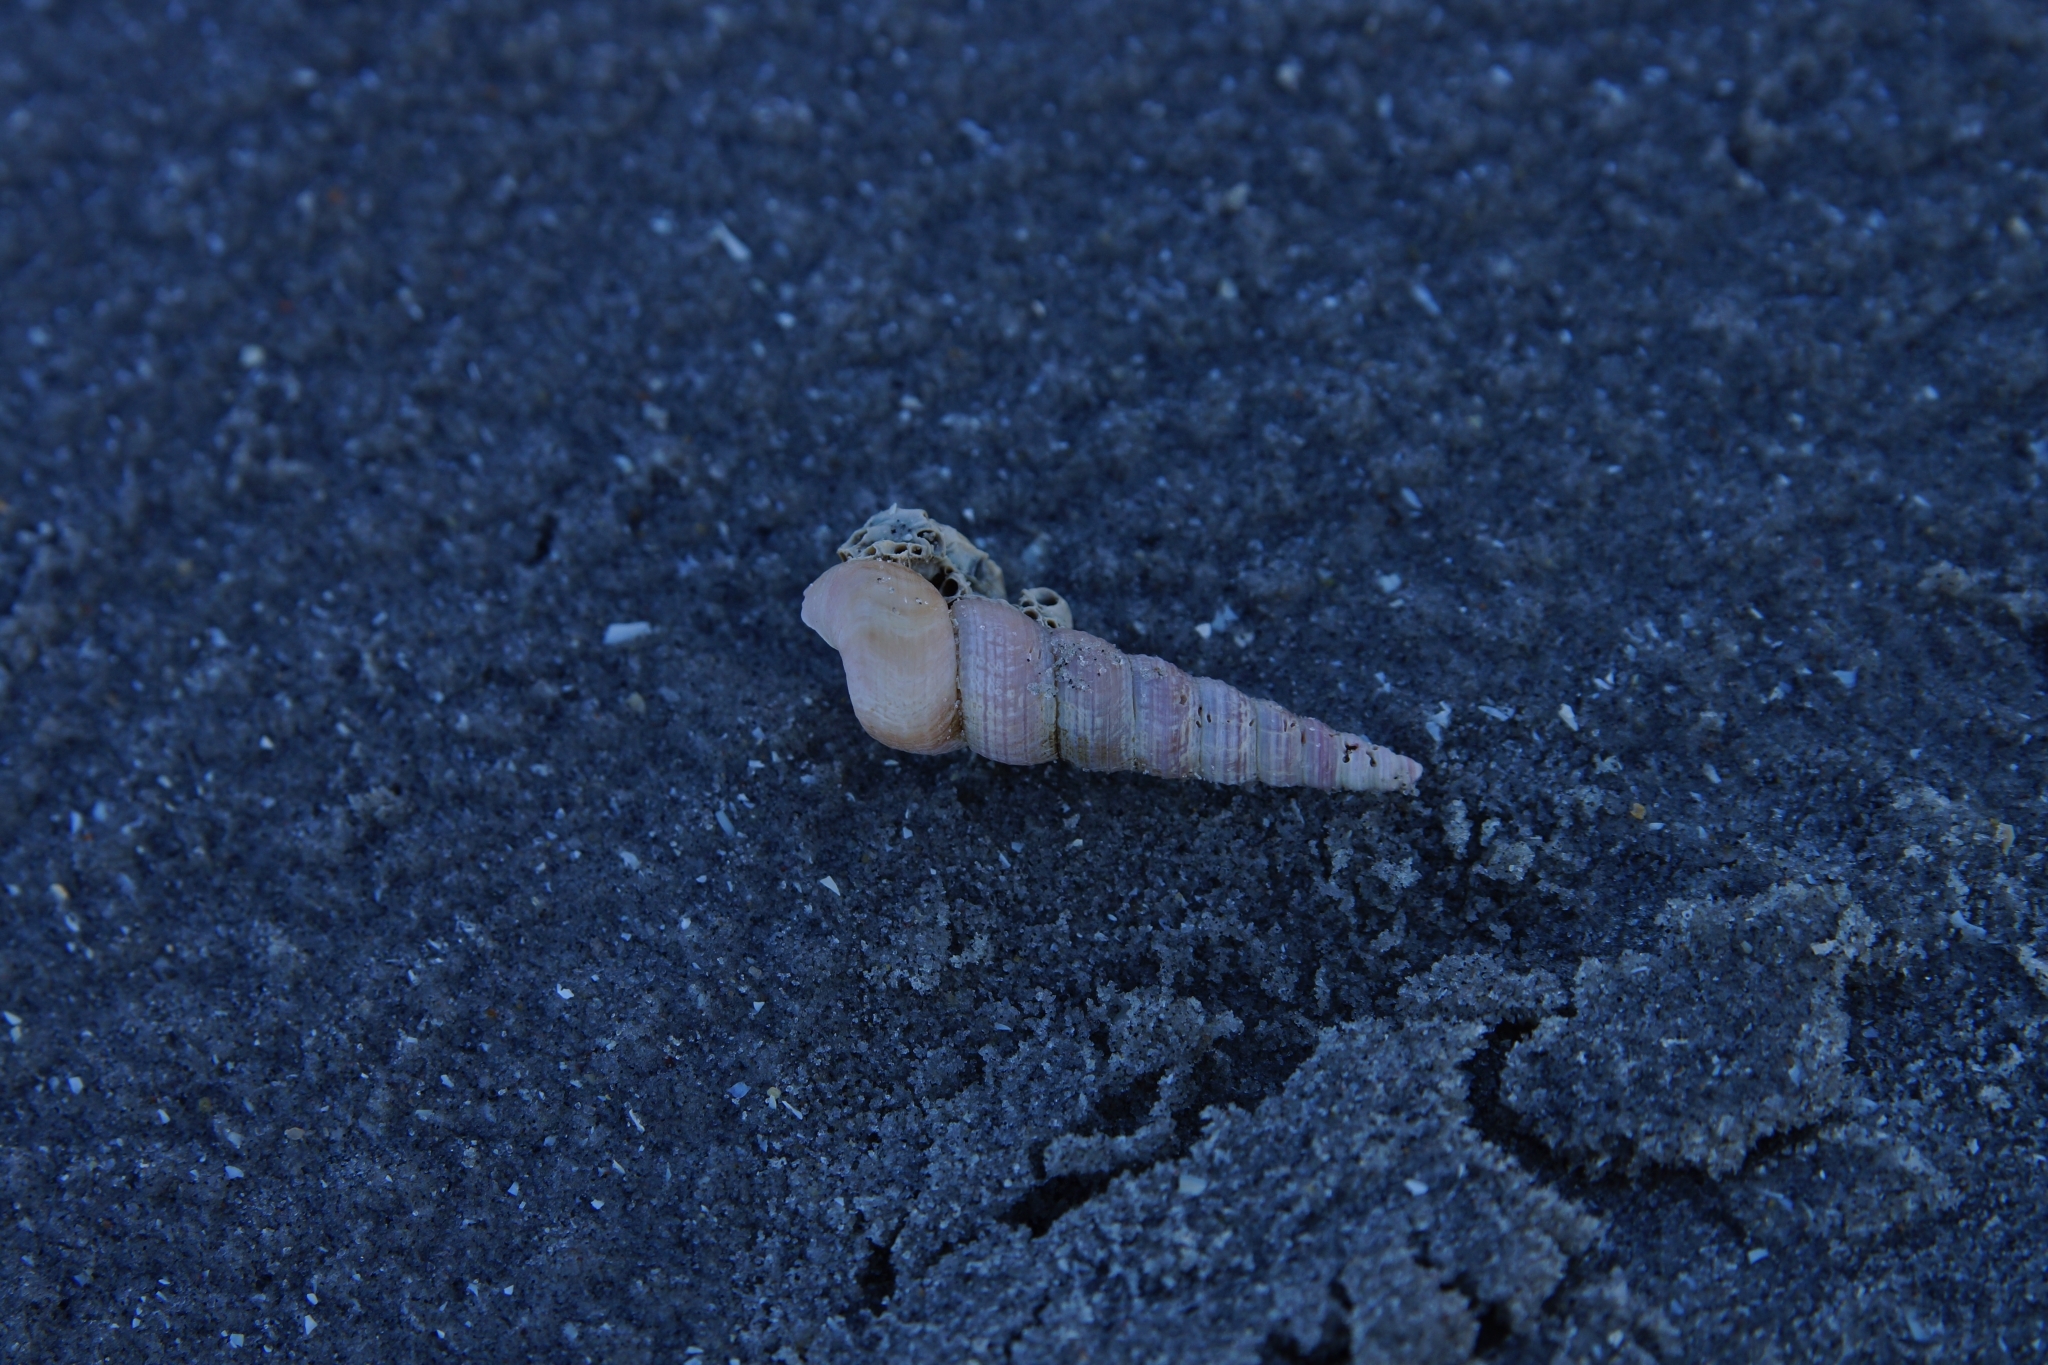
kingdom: Animalia
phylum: Mollusca
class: Gastropoda
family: Turritellidae
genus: Turritellinella
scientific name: Turritellinella tricarinata
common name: Auger shell
